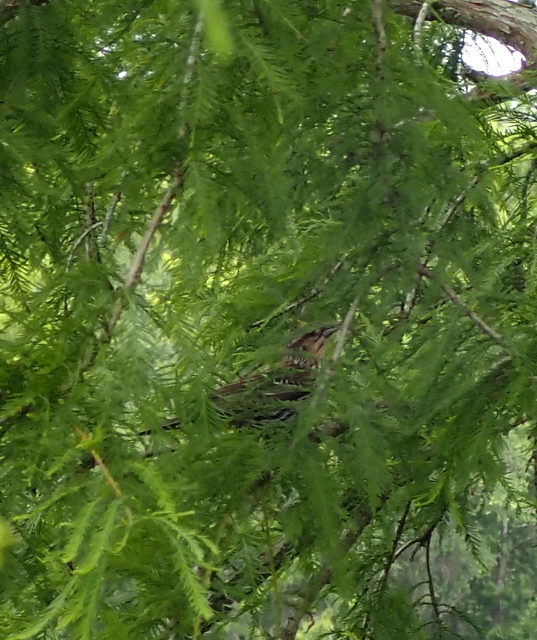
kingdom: Animalia
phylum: Chordata
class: Aves
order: Passeriformes
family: Icteridae
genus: Agelaius
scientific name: Agelaius phoeniceus
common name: Red-winged blackbird
